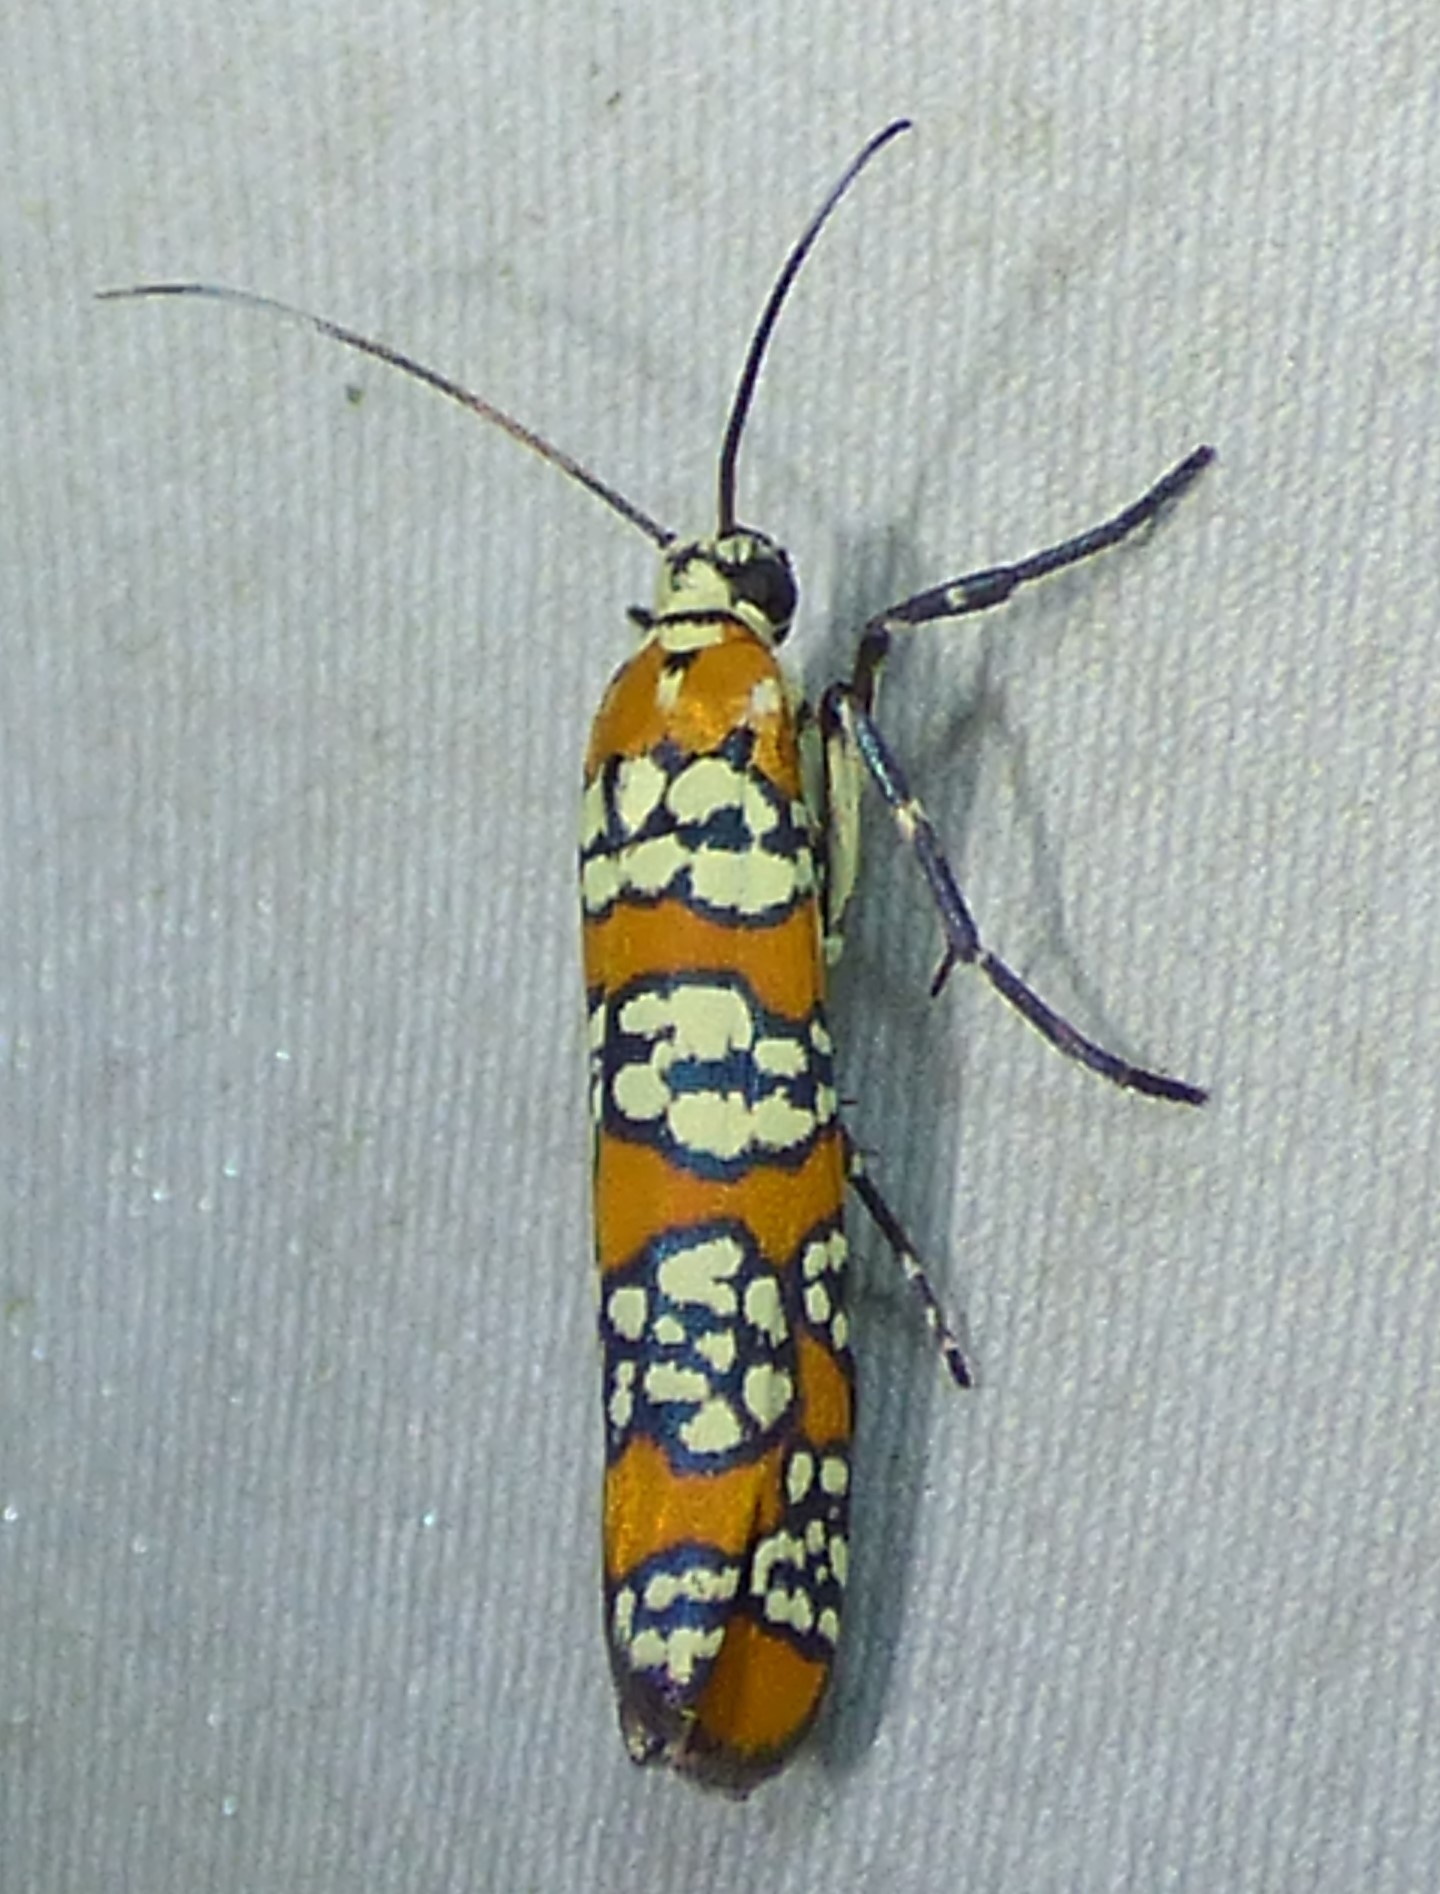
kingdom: Animalia
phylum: Arthropoda
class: Insecta
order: Lepidoptera
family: Attevidae
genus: Atteva
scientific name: Atteva punctella
